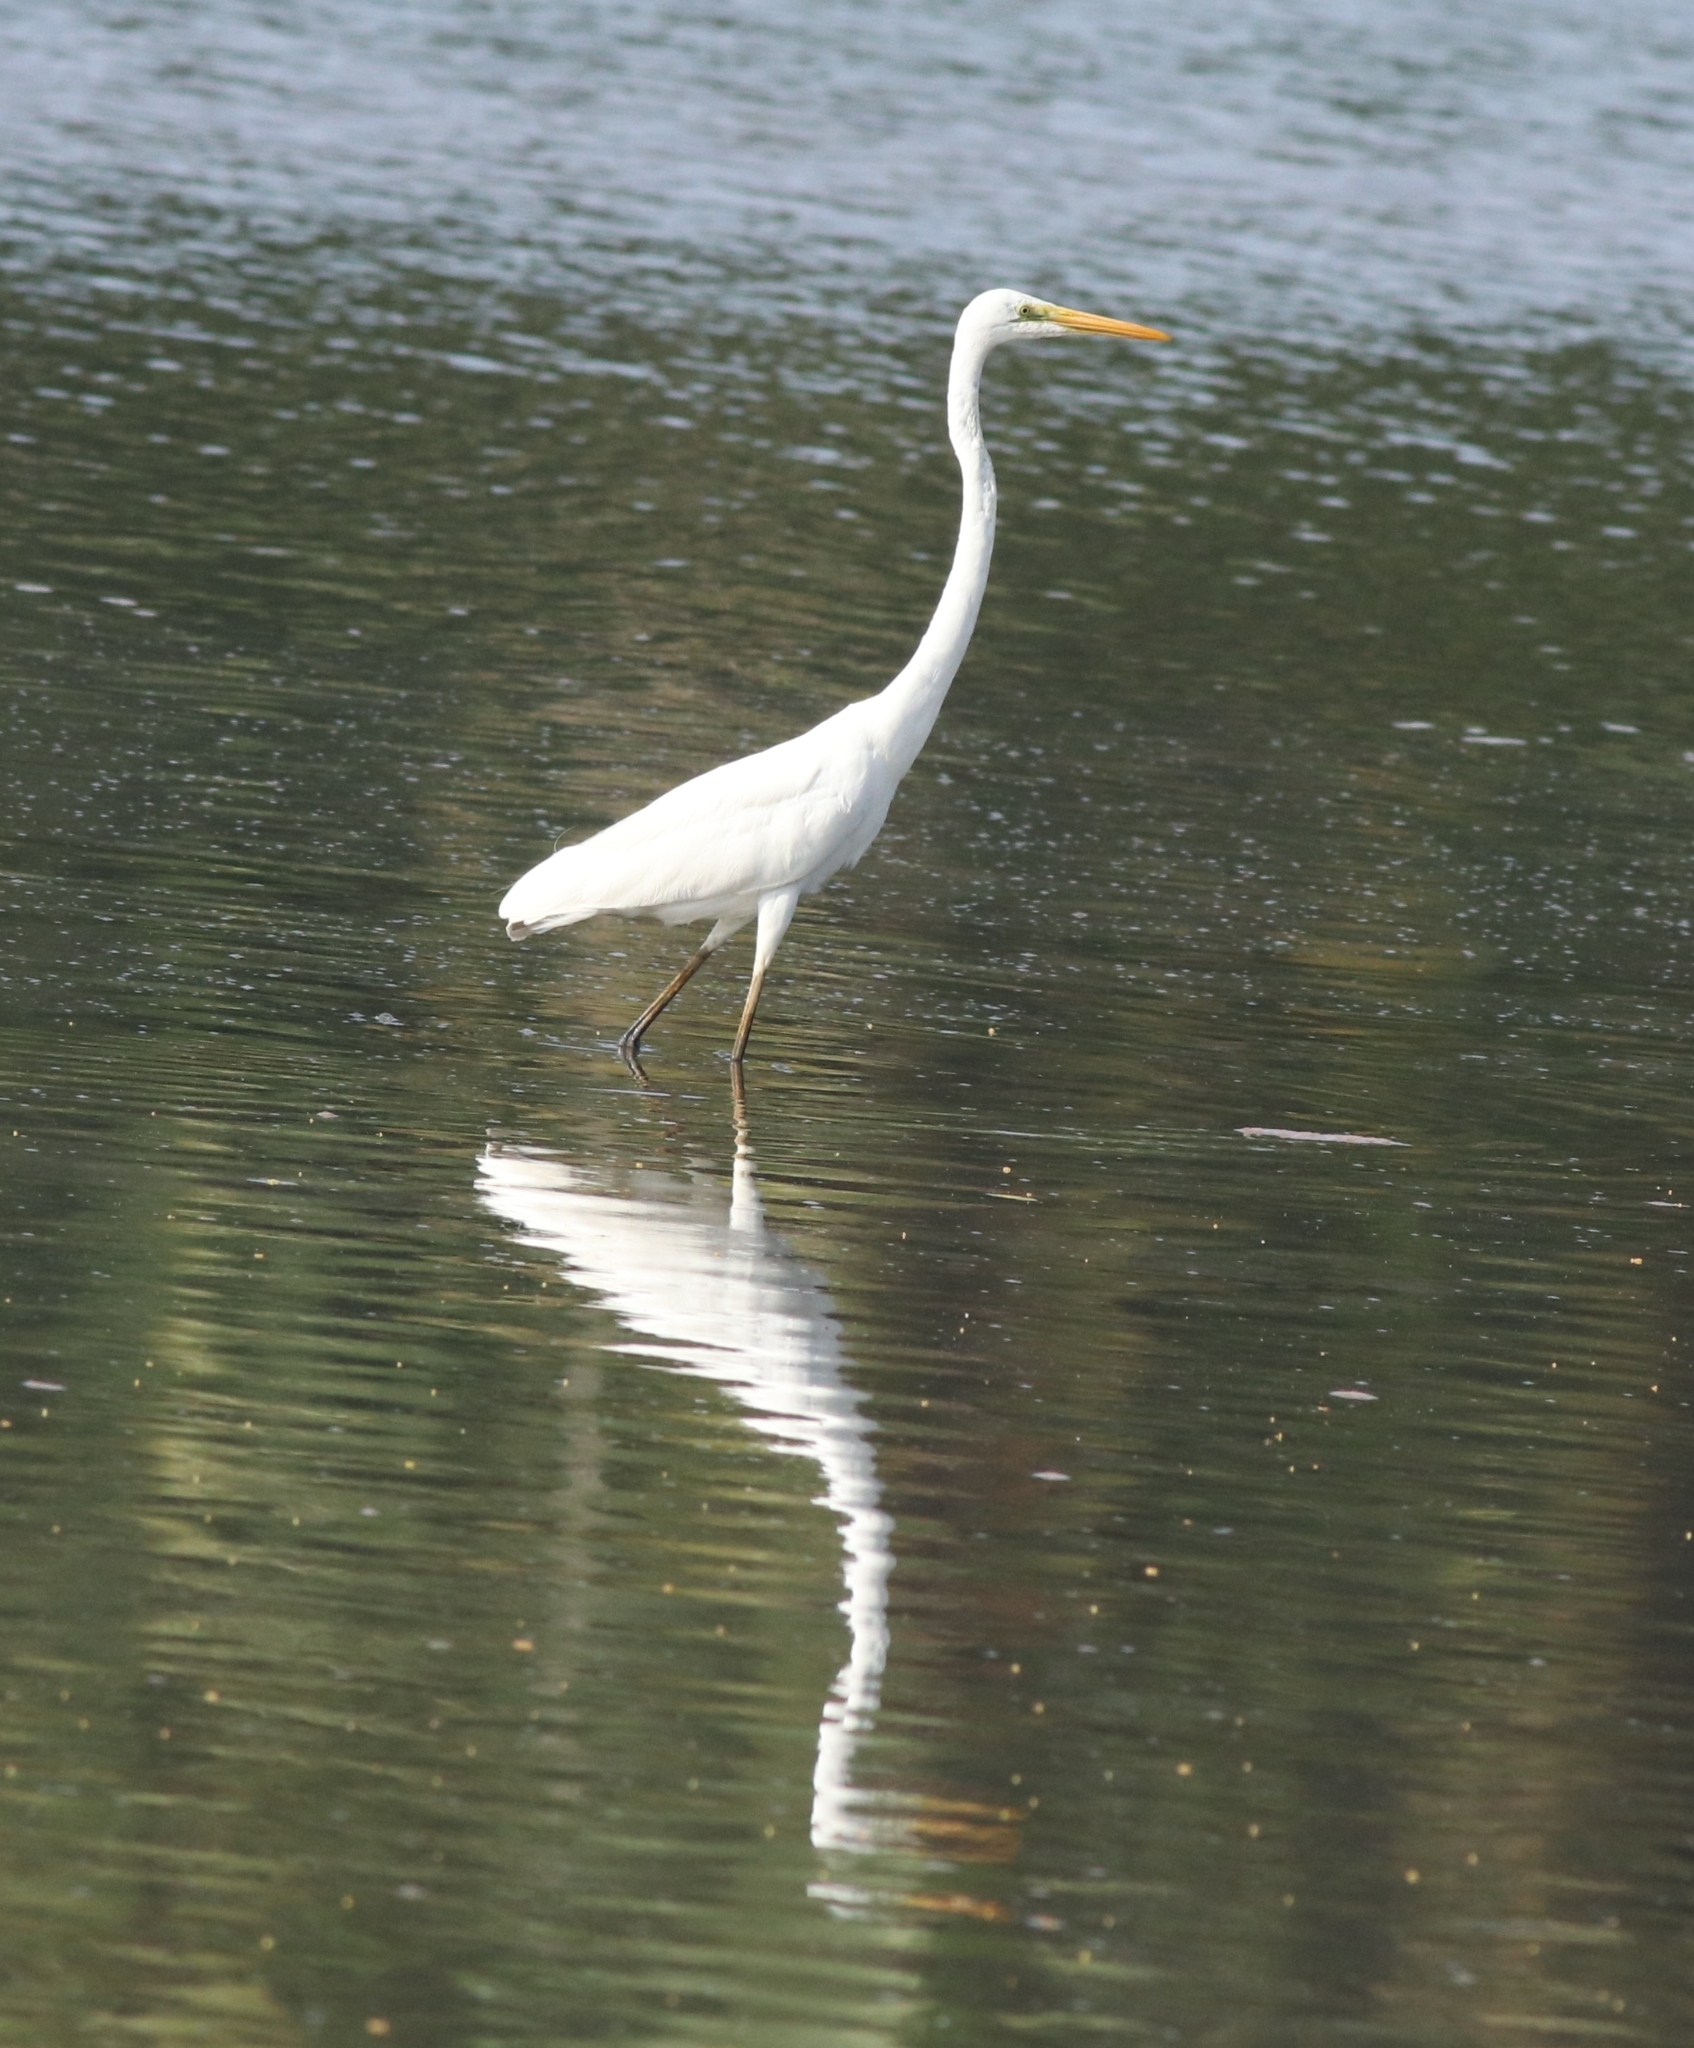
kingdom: Animalia
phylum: Chordata
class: Aves
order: Pelecaniformes
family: Ardeidae
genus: Ardea
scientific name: Ardea alba
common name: Great egret
